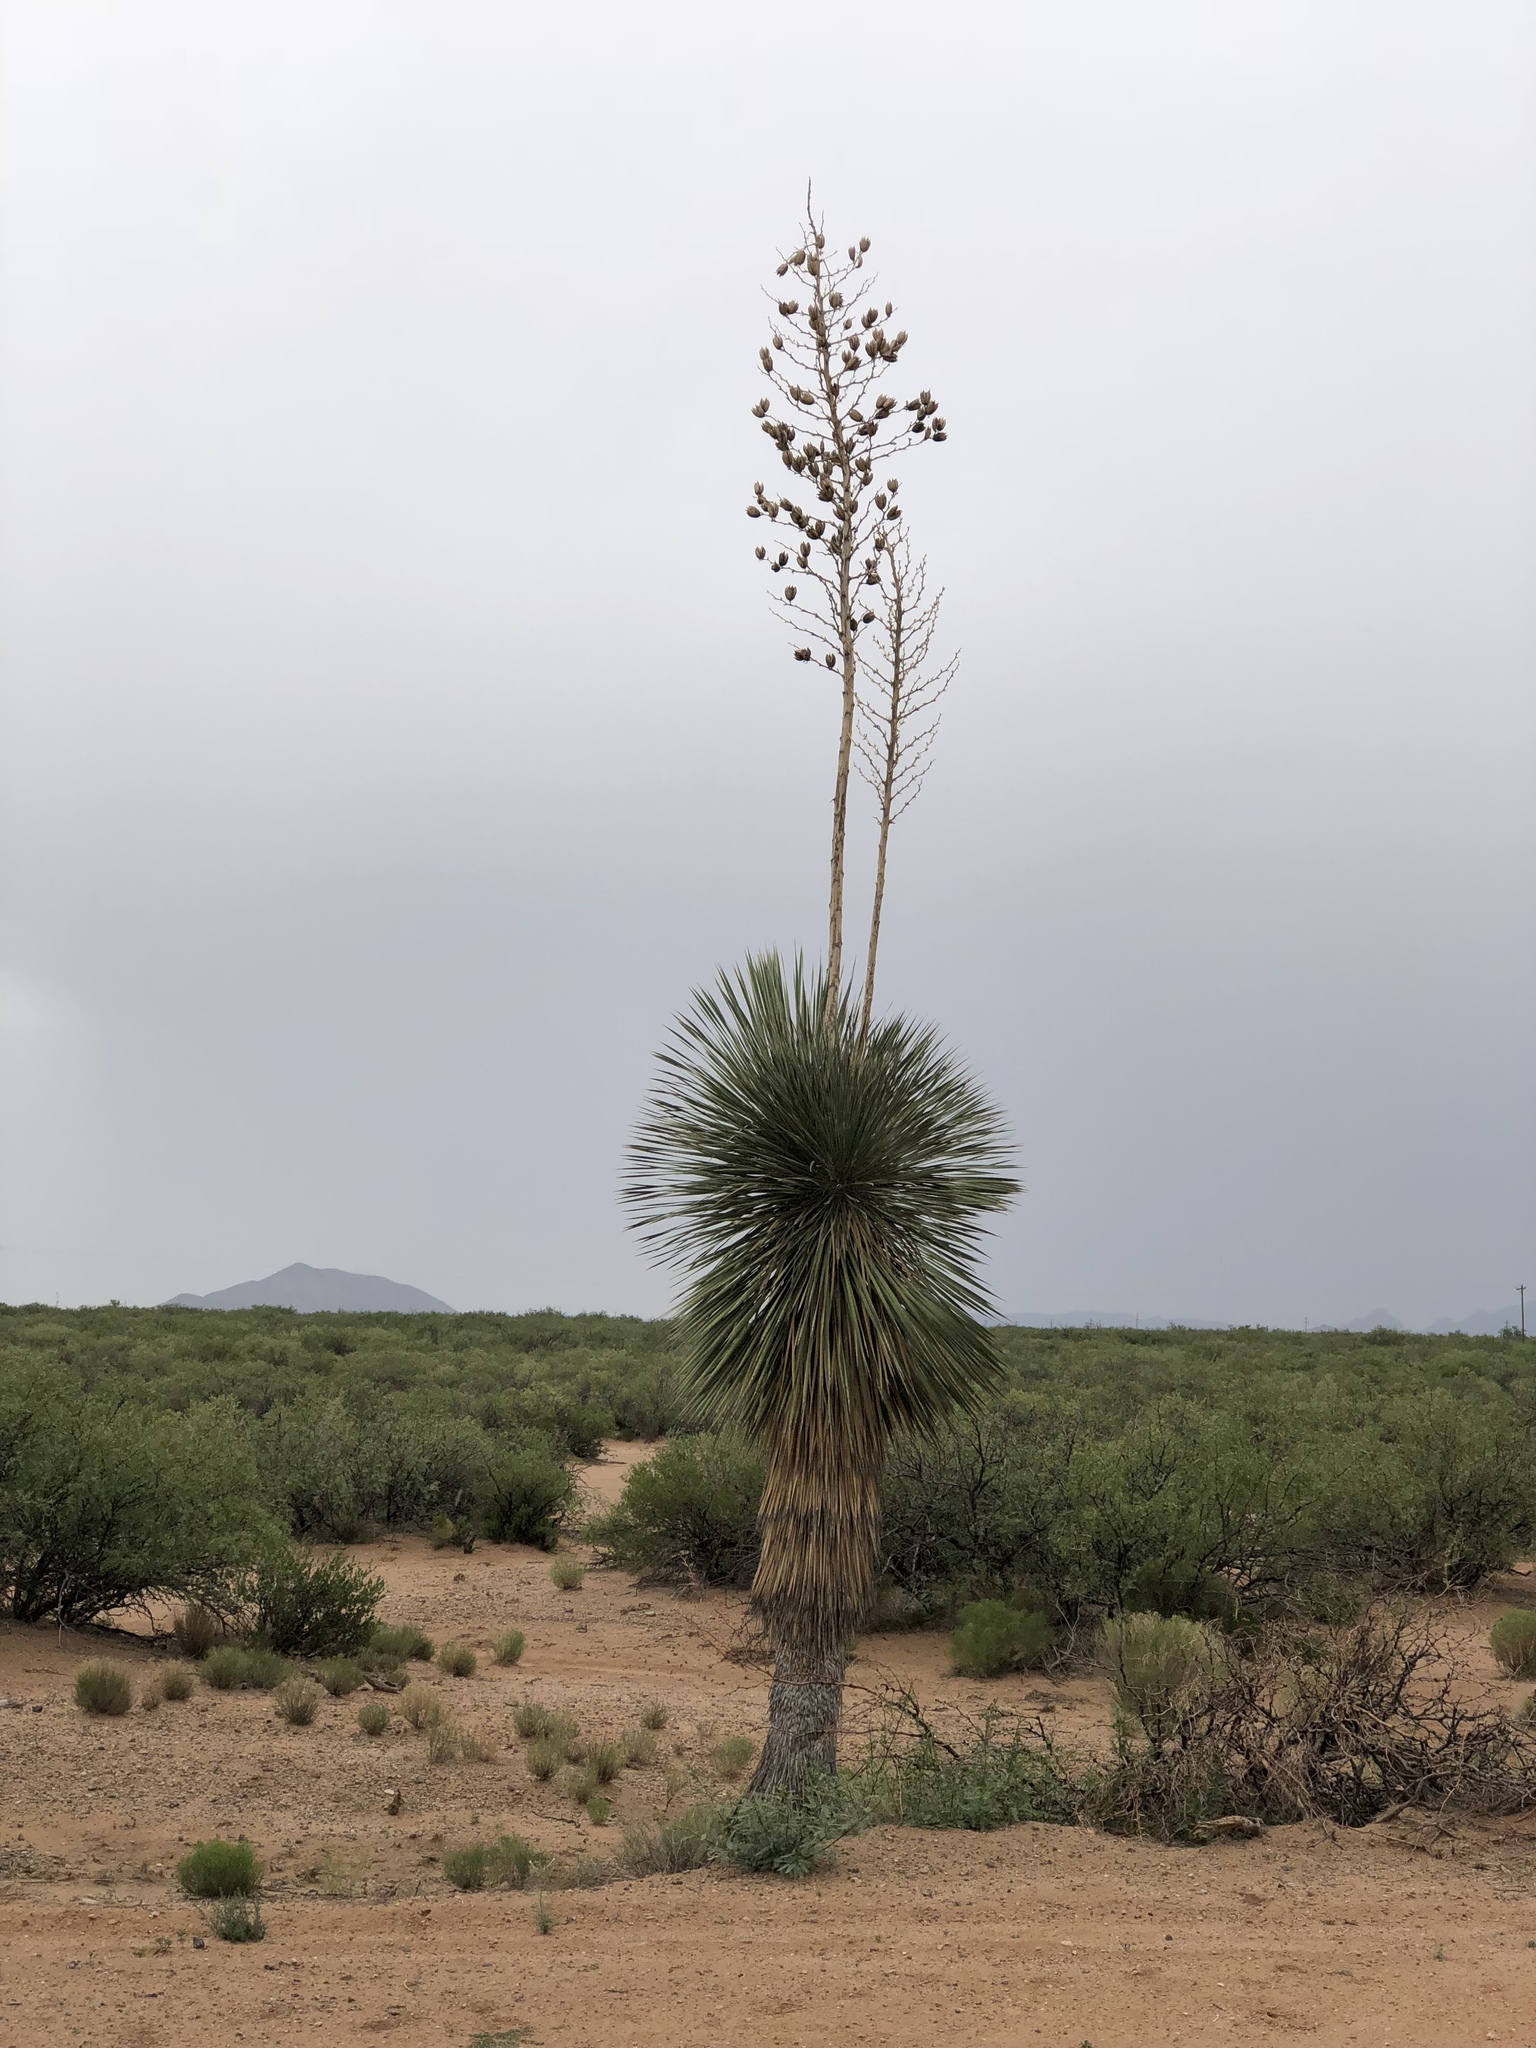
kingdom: Plantae
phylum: Tracheophyta
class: Liliopsida
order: Asparagales
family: Asparagaceae
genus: Yucca
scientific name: Yucca elata
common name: Palmella
